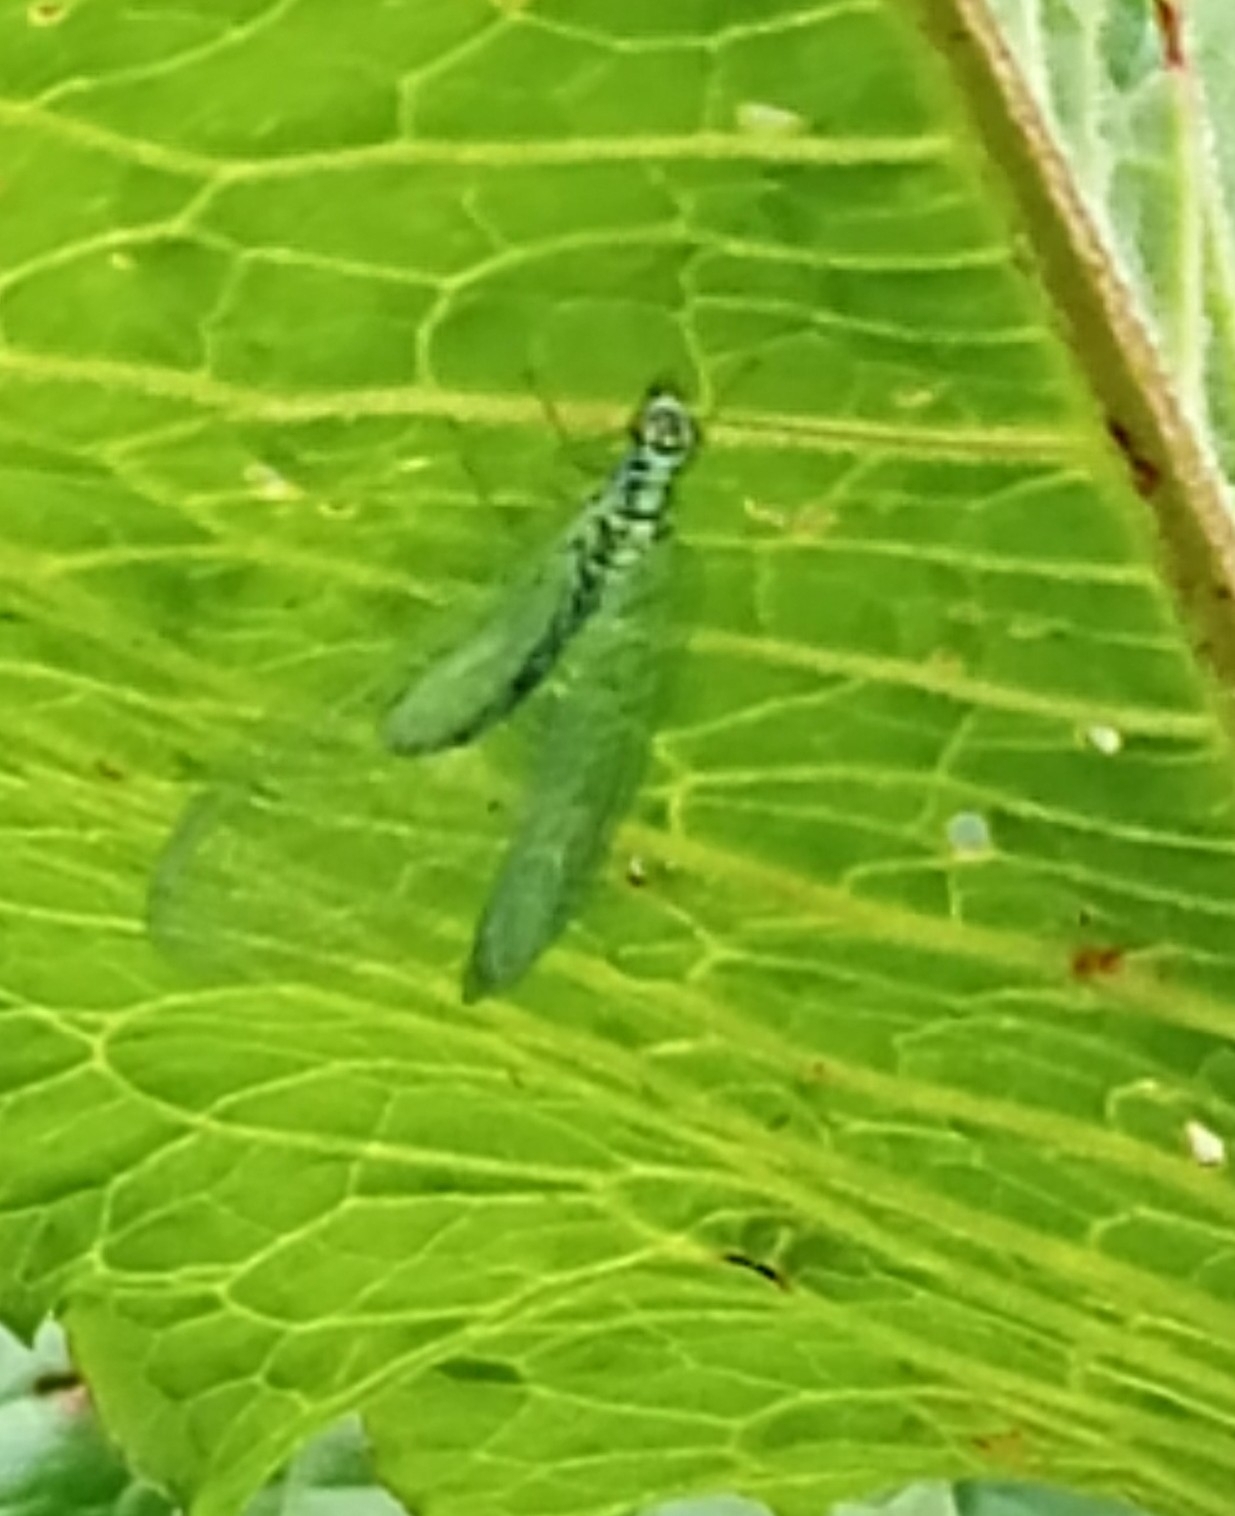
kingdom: Animalia
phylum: Arthropoda
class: Insecta
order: Neuroptera
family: Chrysopidae
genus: Chrysopa
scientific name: Chrysopa perla
